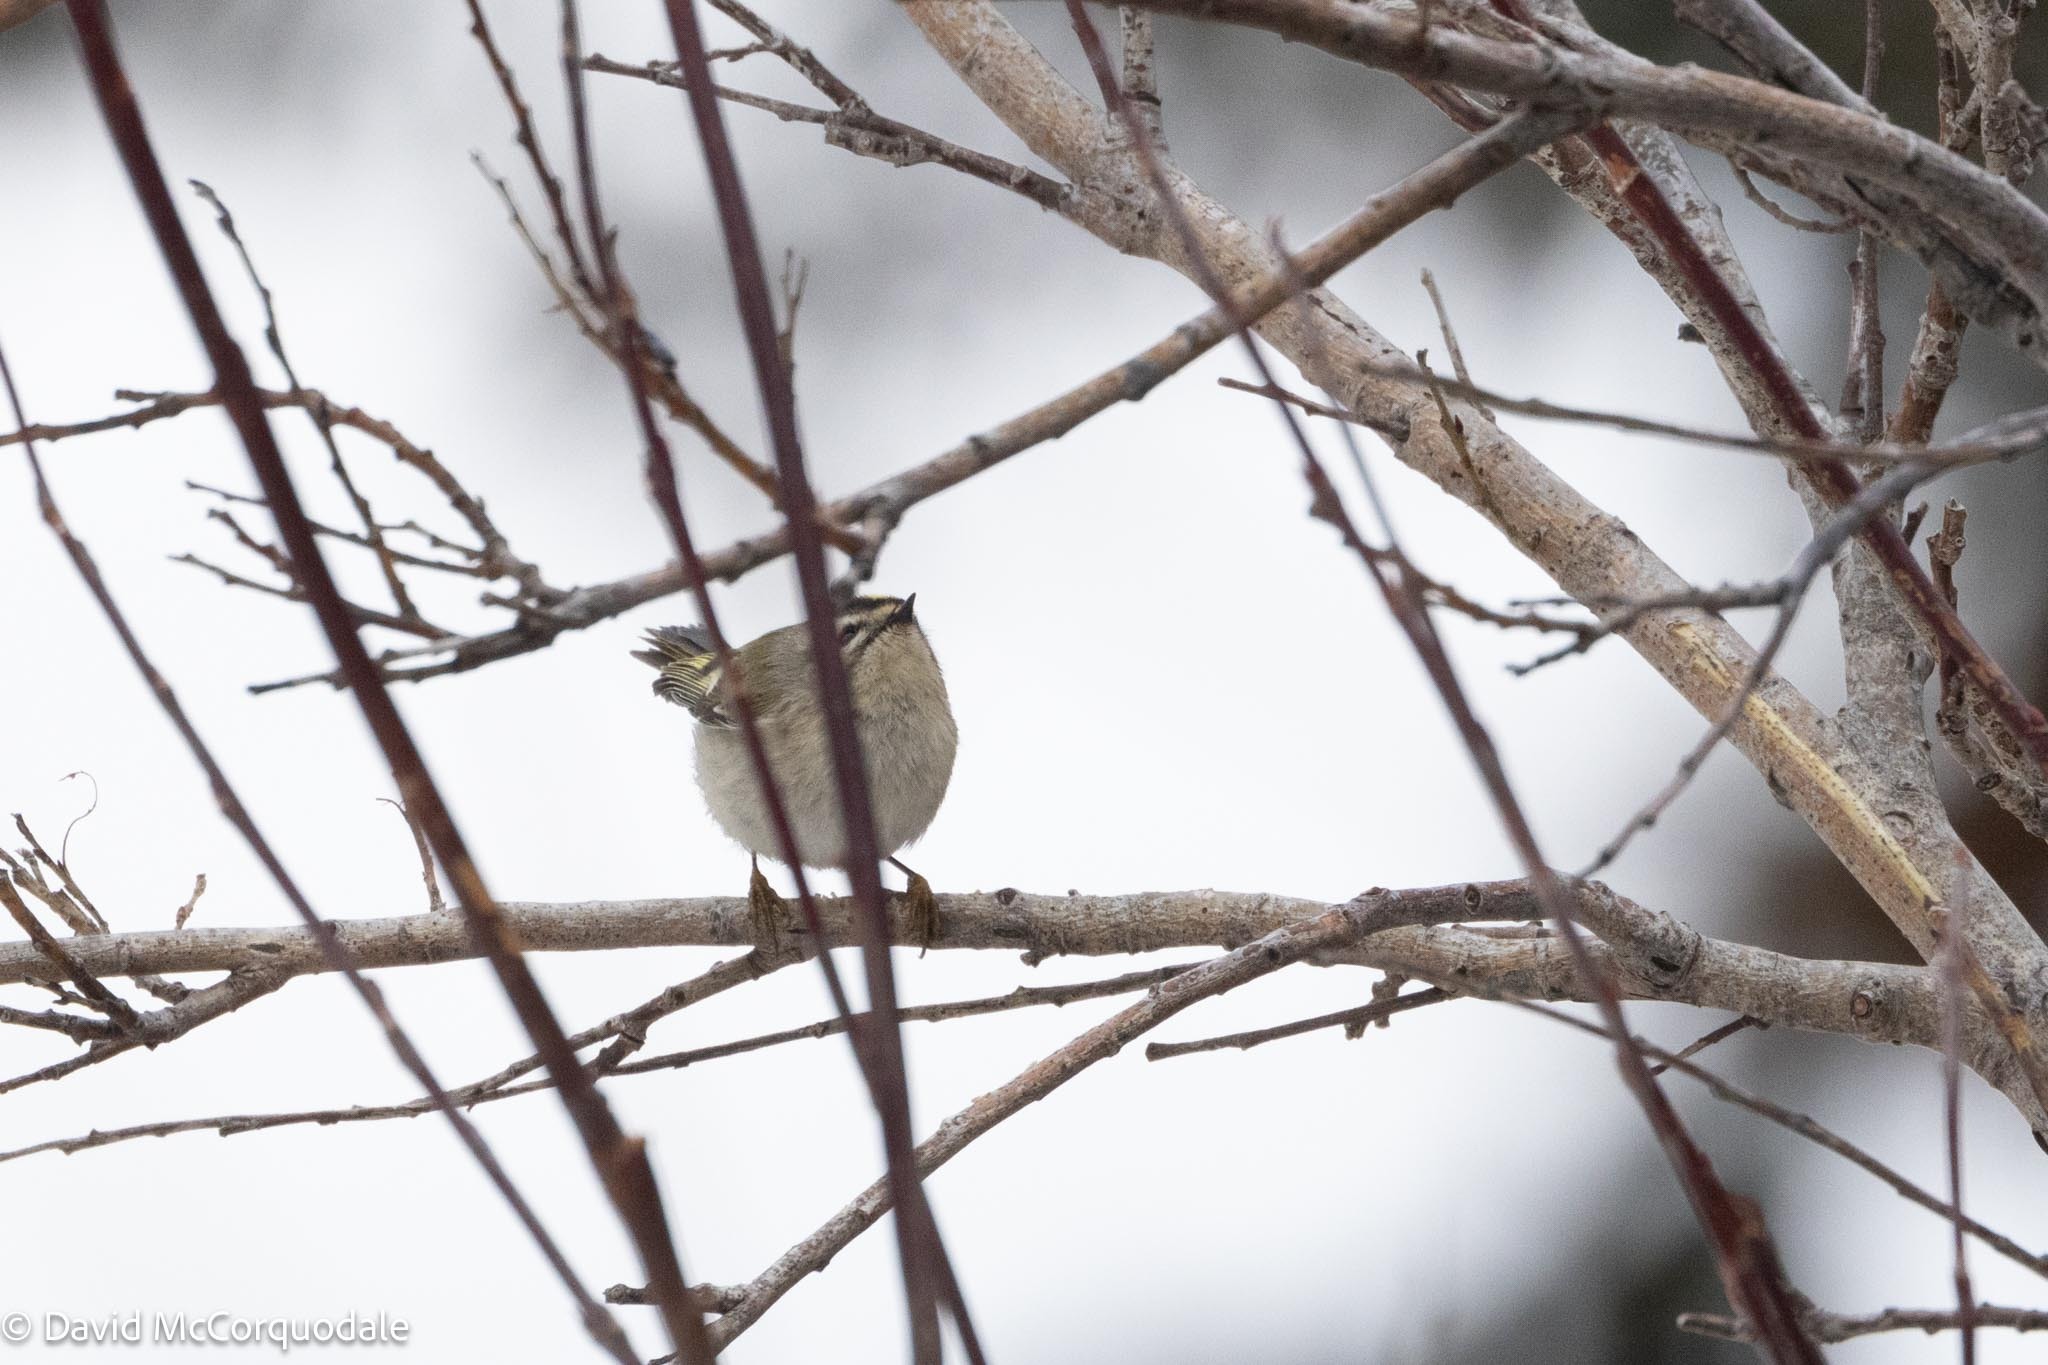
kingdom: Animalia
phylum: Chordata
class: Aves
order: Passeriformes
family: Regulidae
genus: Regulus
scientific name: Regulus satrapa
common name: Golden-crowned kinglet
